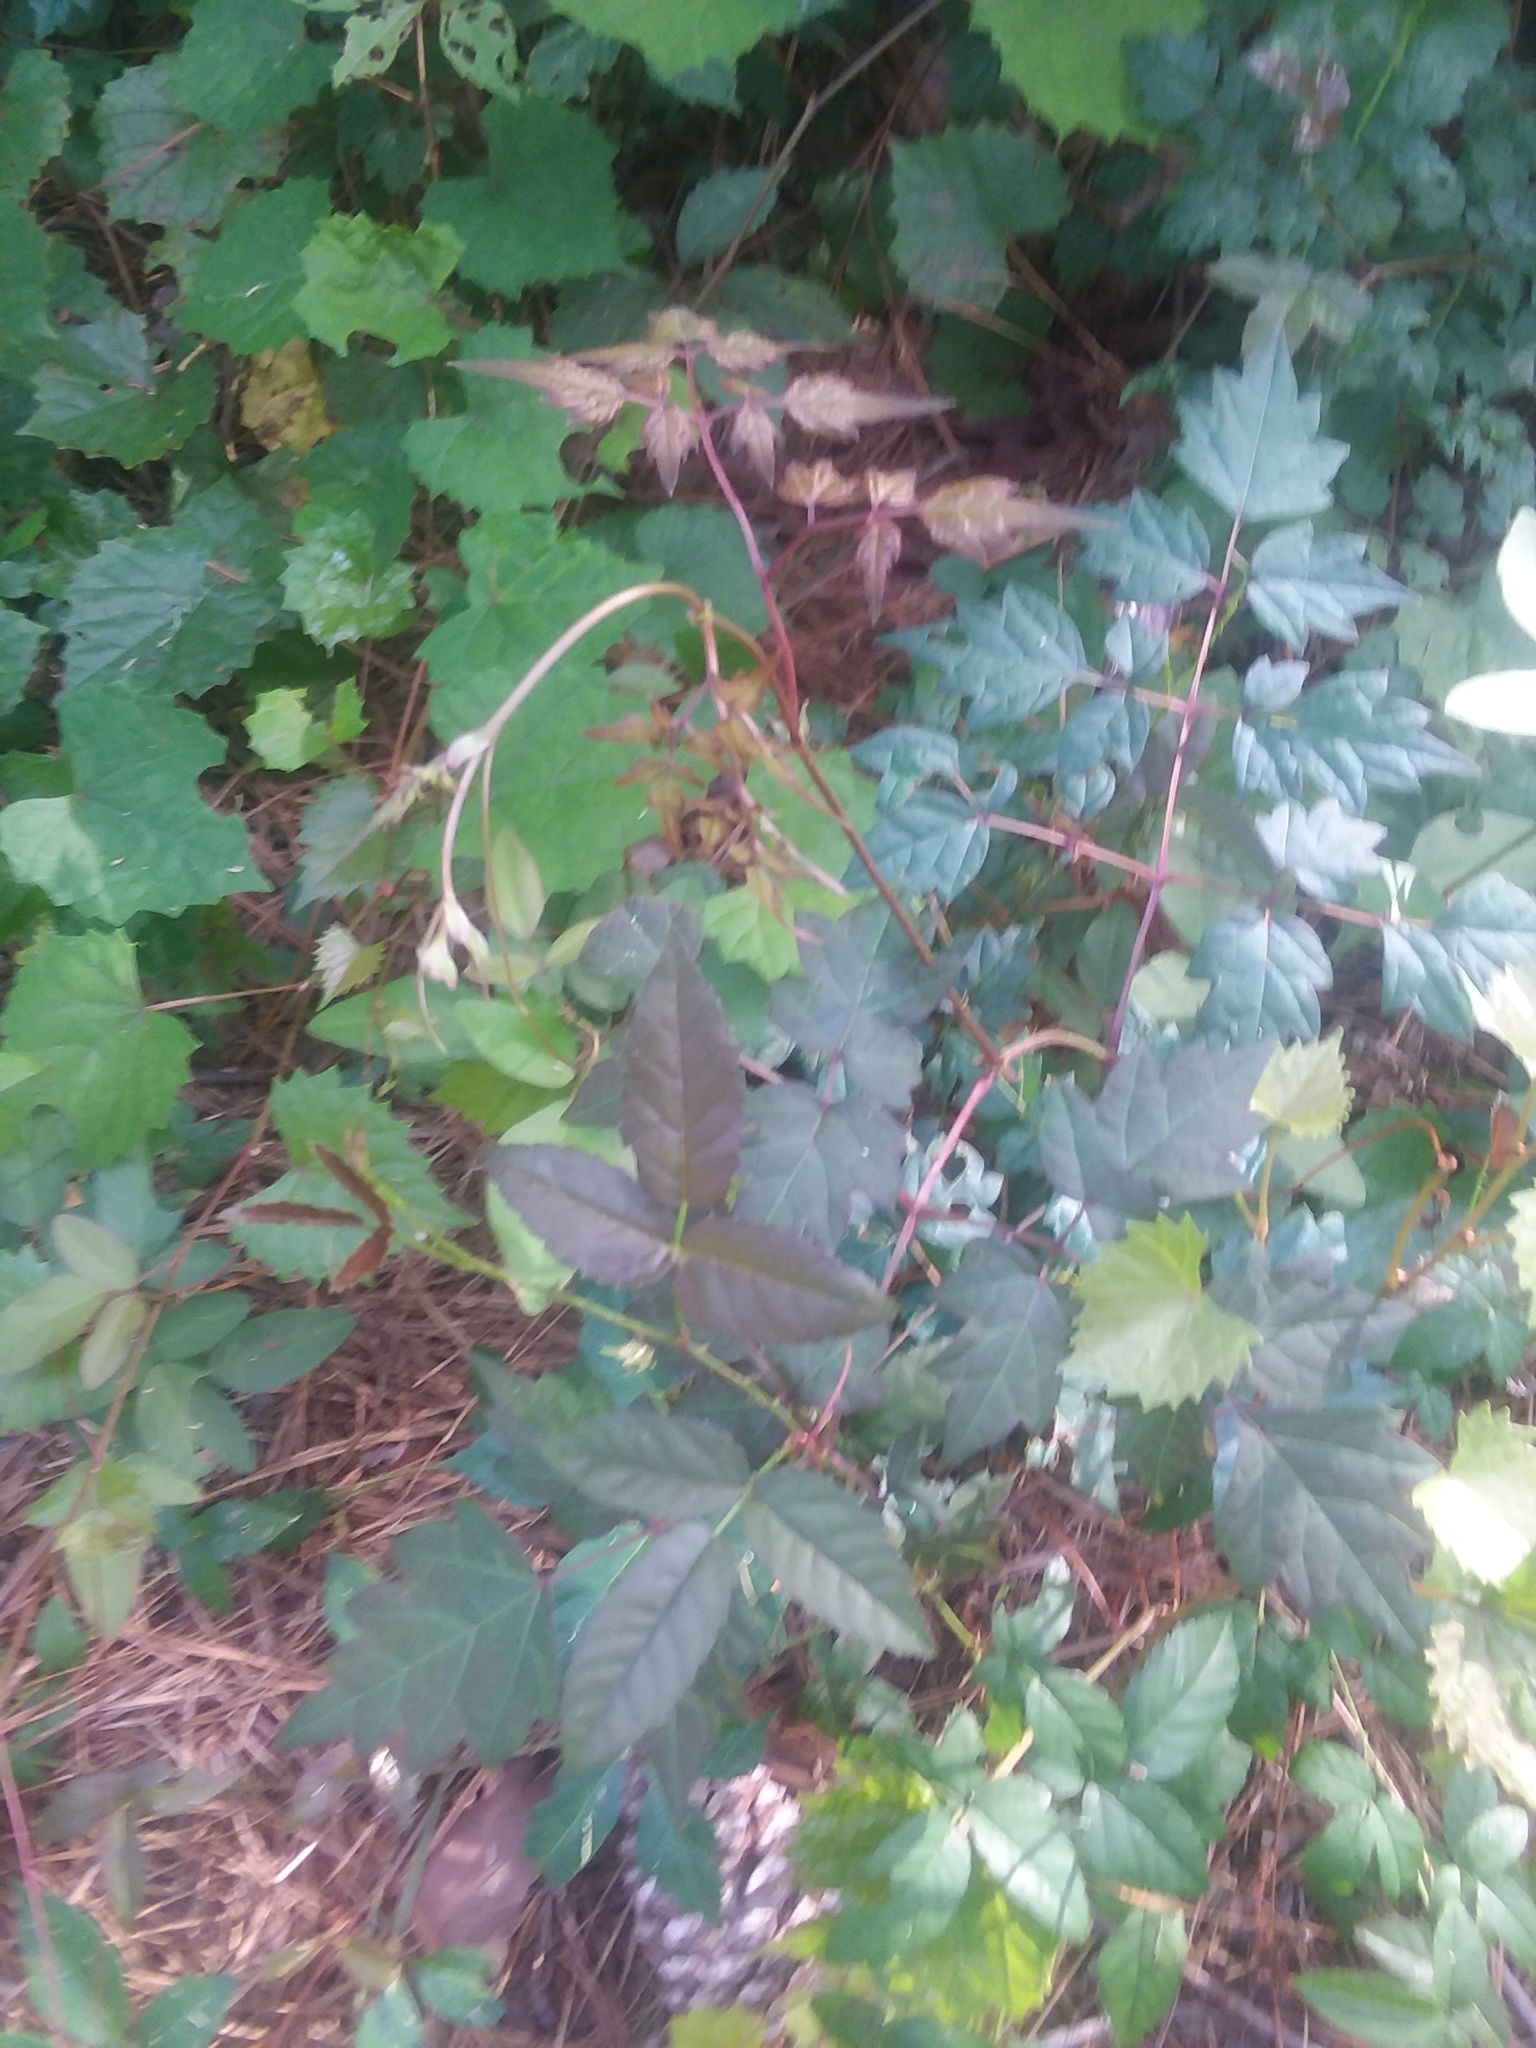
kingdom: Plantae
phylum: Tracheophyta
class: Magnoliopsida
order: Vitales
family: Vitaceae
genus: Nekemias
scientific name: Nekemias arborea
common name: Peppervine
